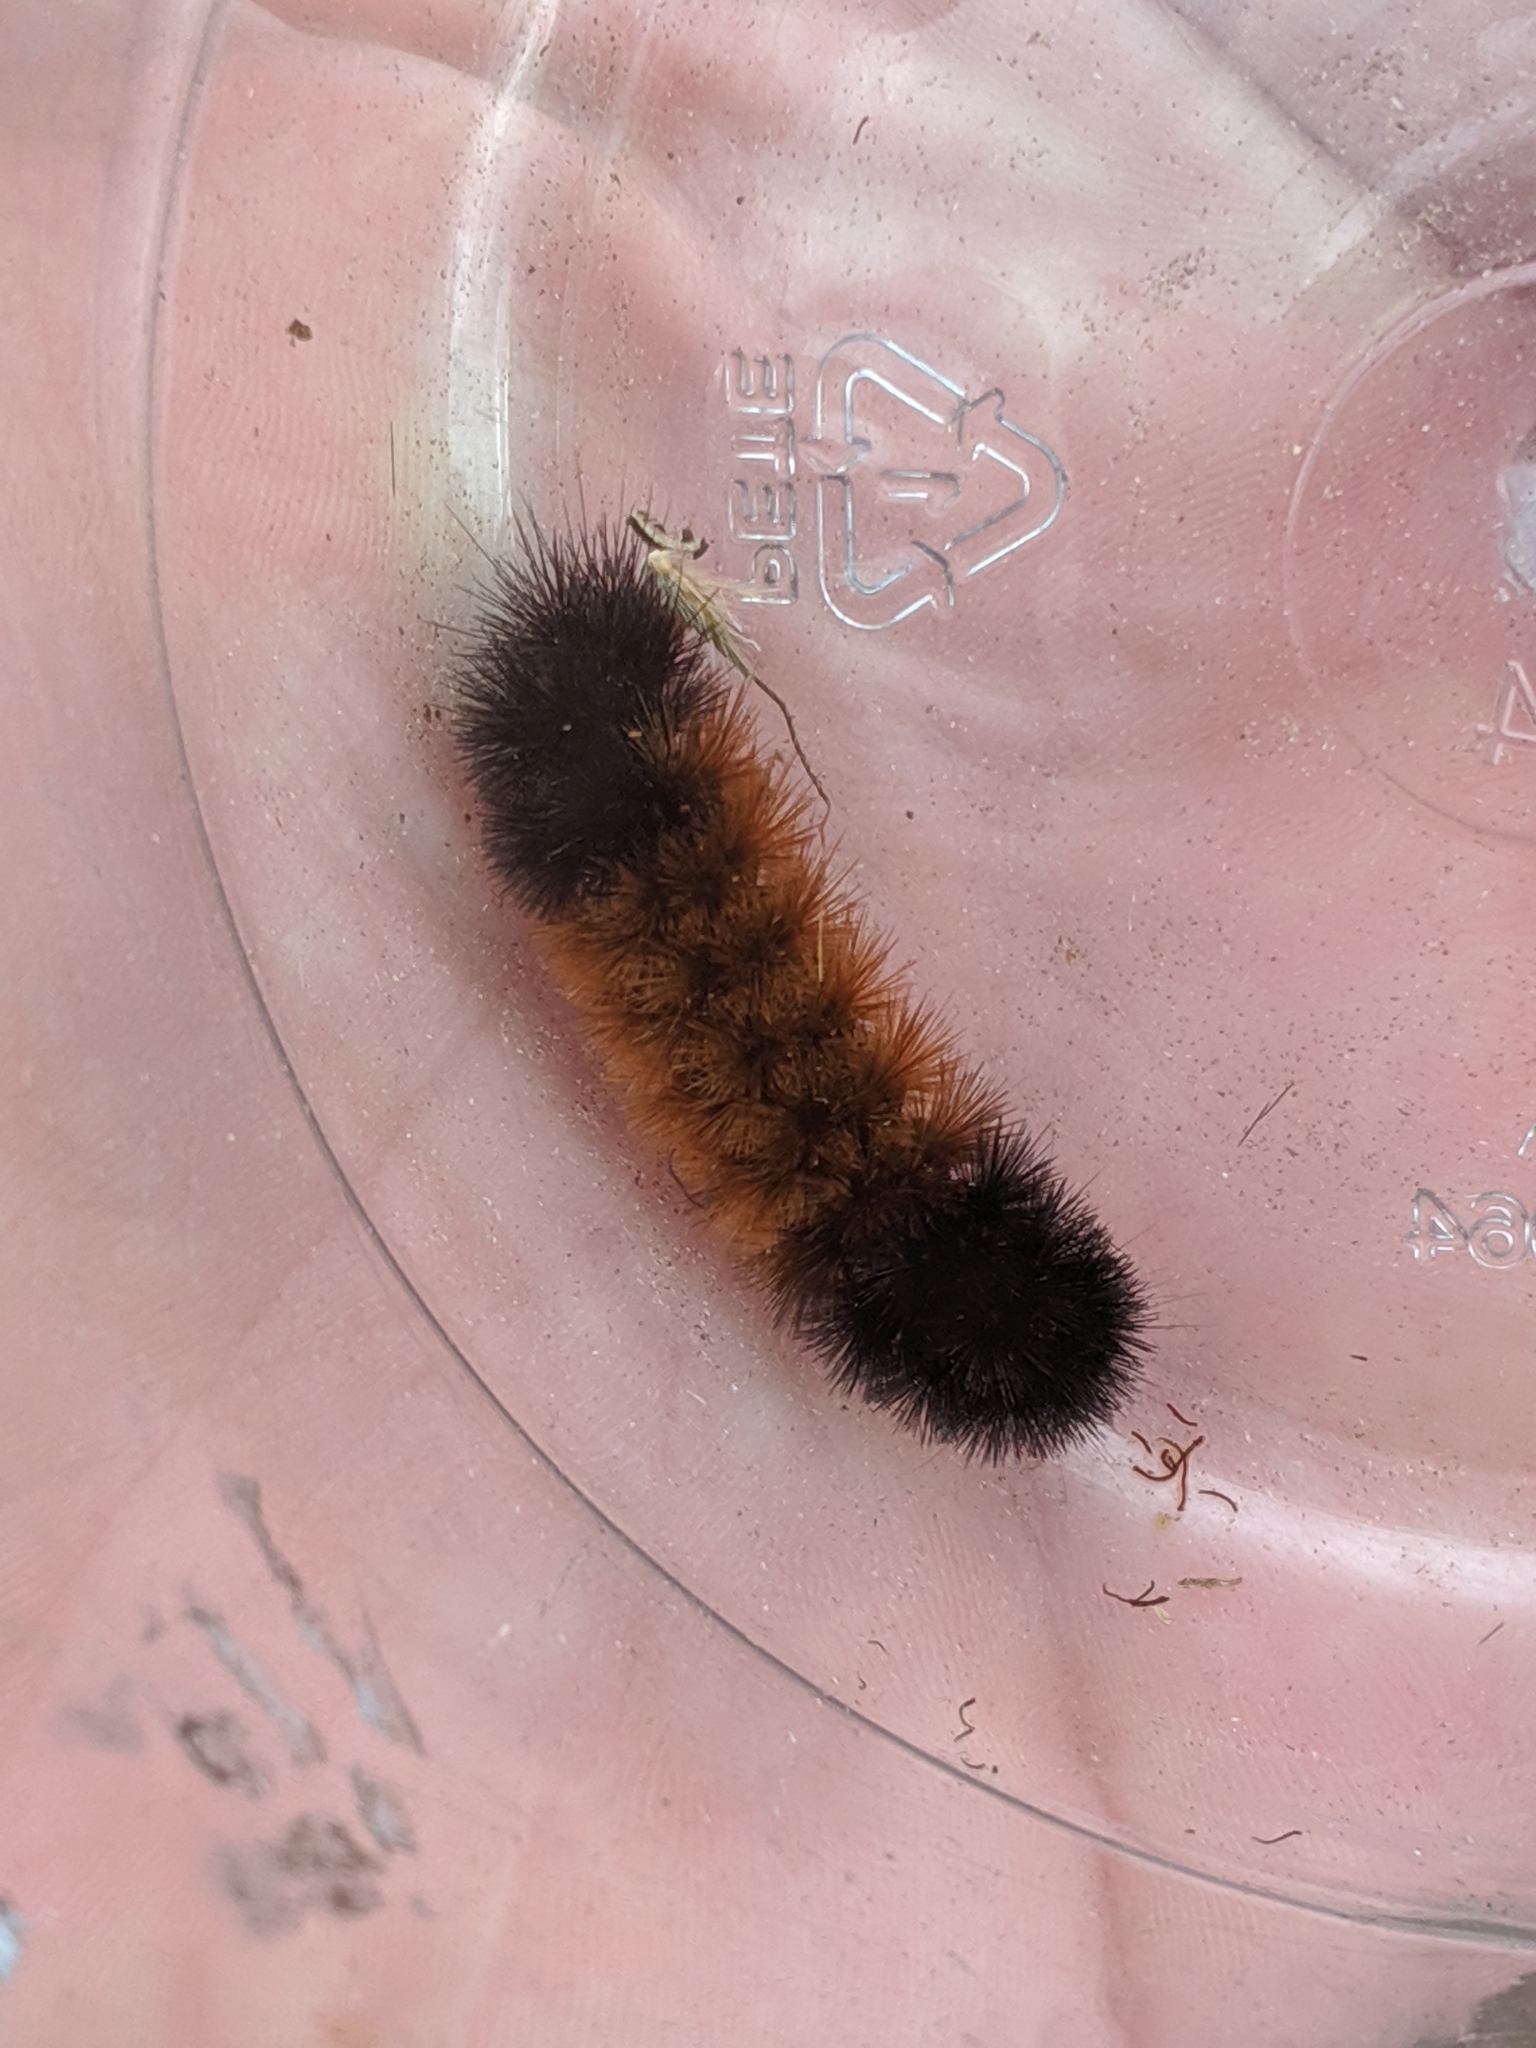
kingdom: Animalia
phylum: Arthropoda
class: Insecta
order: Lepidoptera
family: Erebidae
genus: Pyrrharctia
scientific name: Pyrrharctia isabella
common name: Isabella tiger moth
